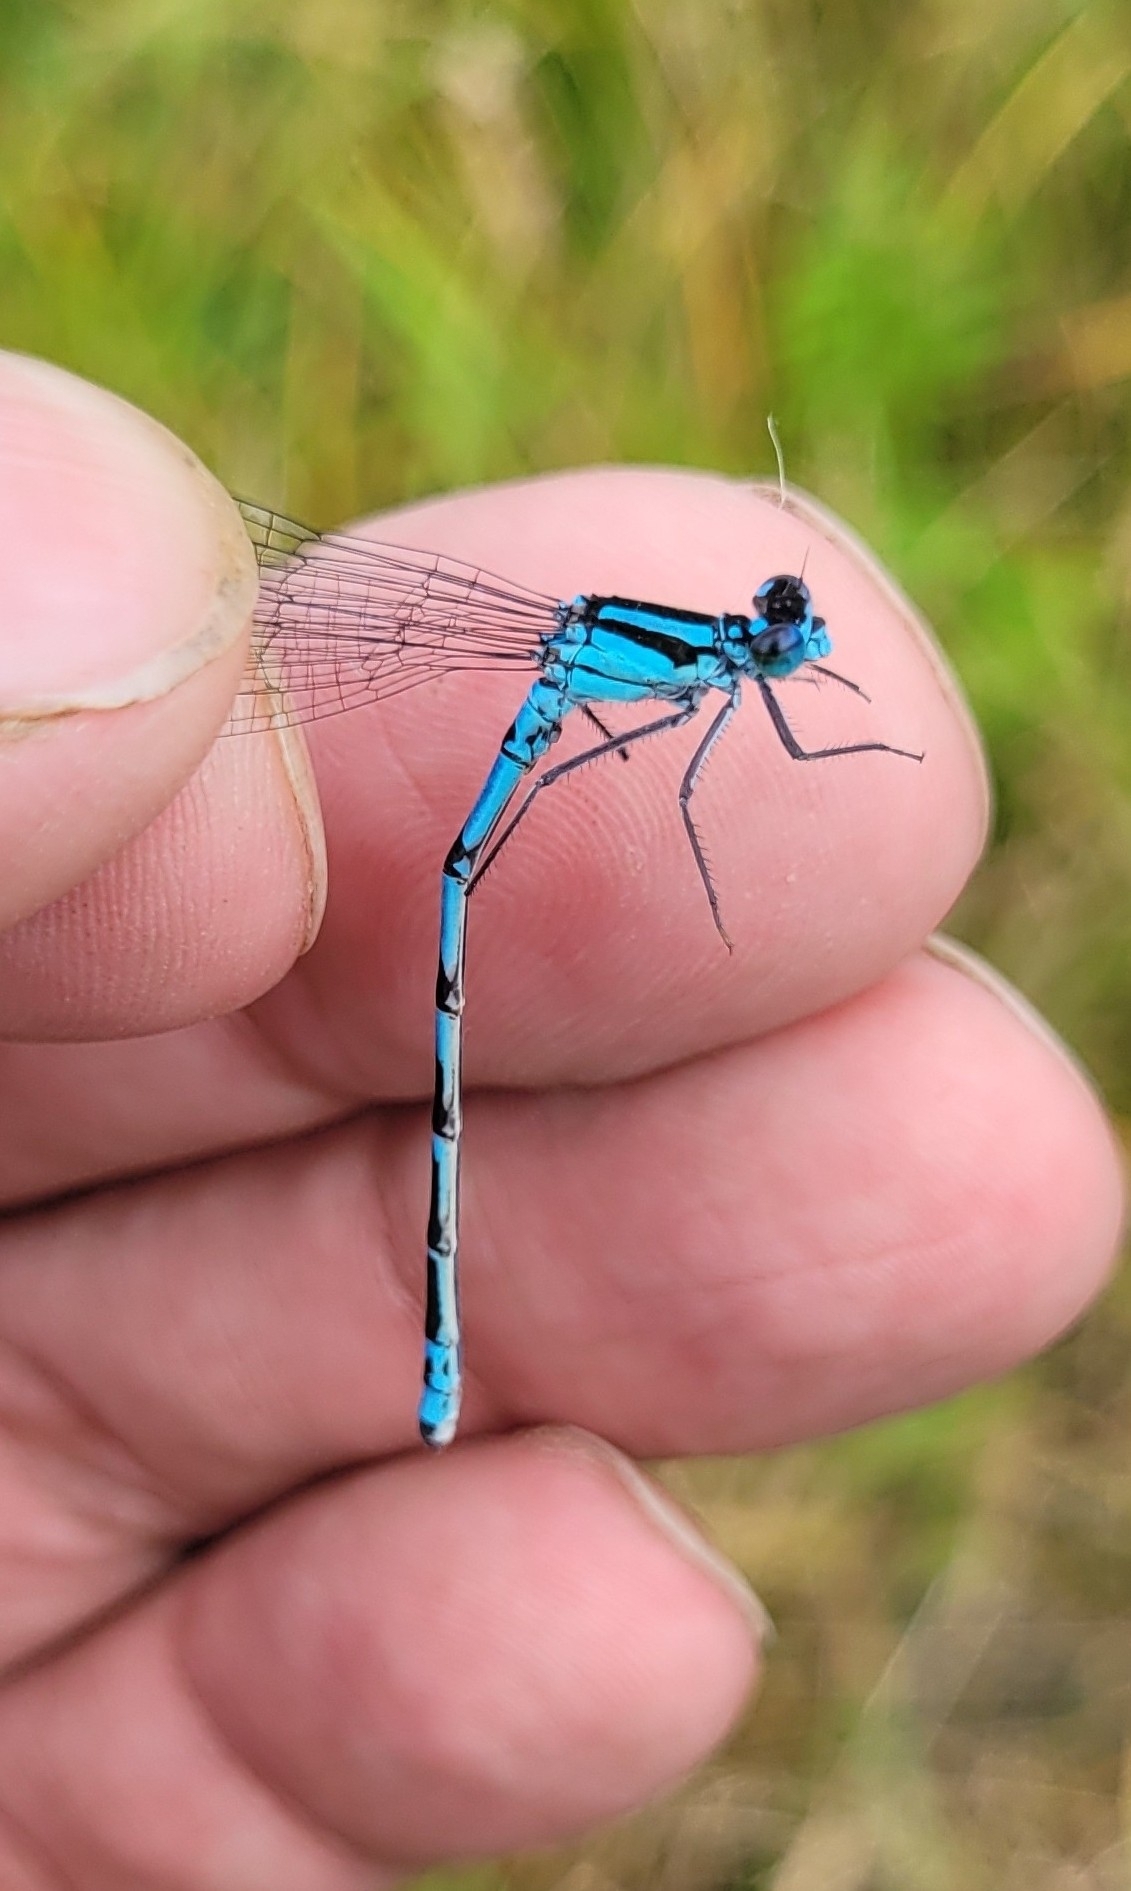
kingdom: Animalia
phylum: Arthropoda
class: Insecta
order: Odonata
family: Coenagrionidae
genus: Enallagma
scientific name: Enallagma circulatum
